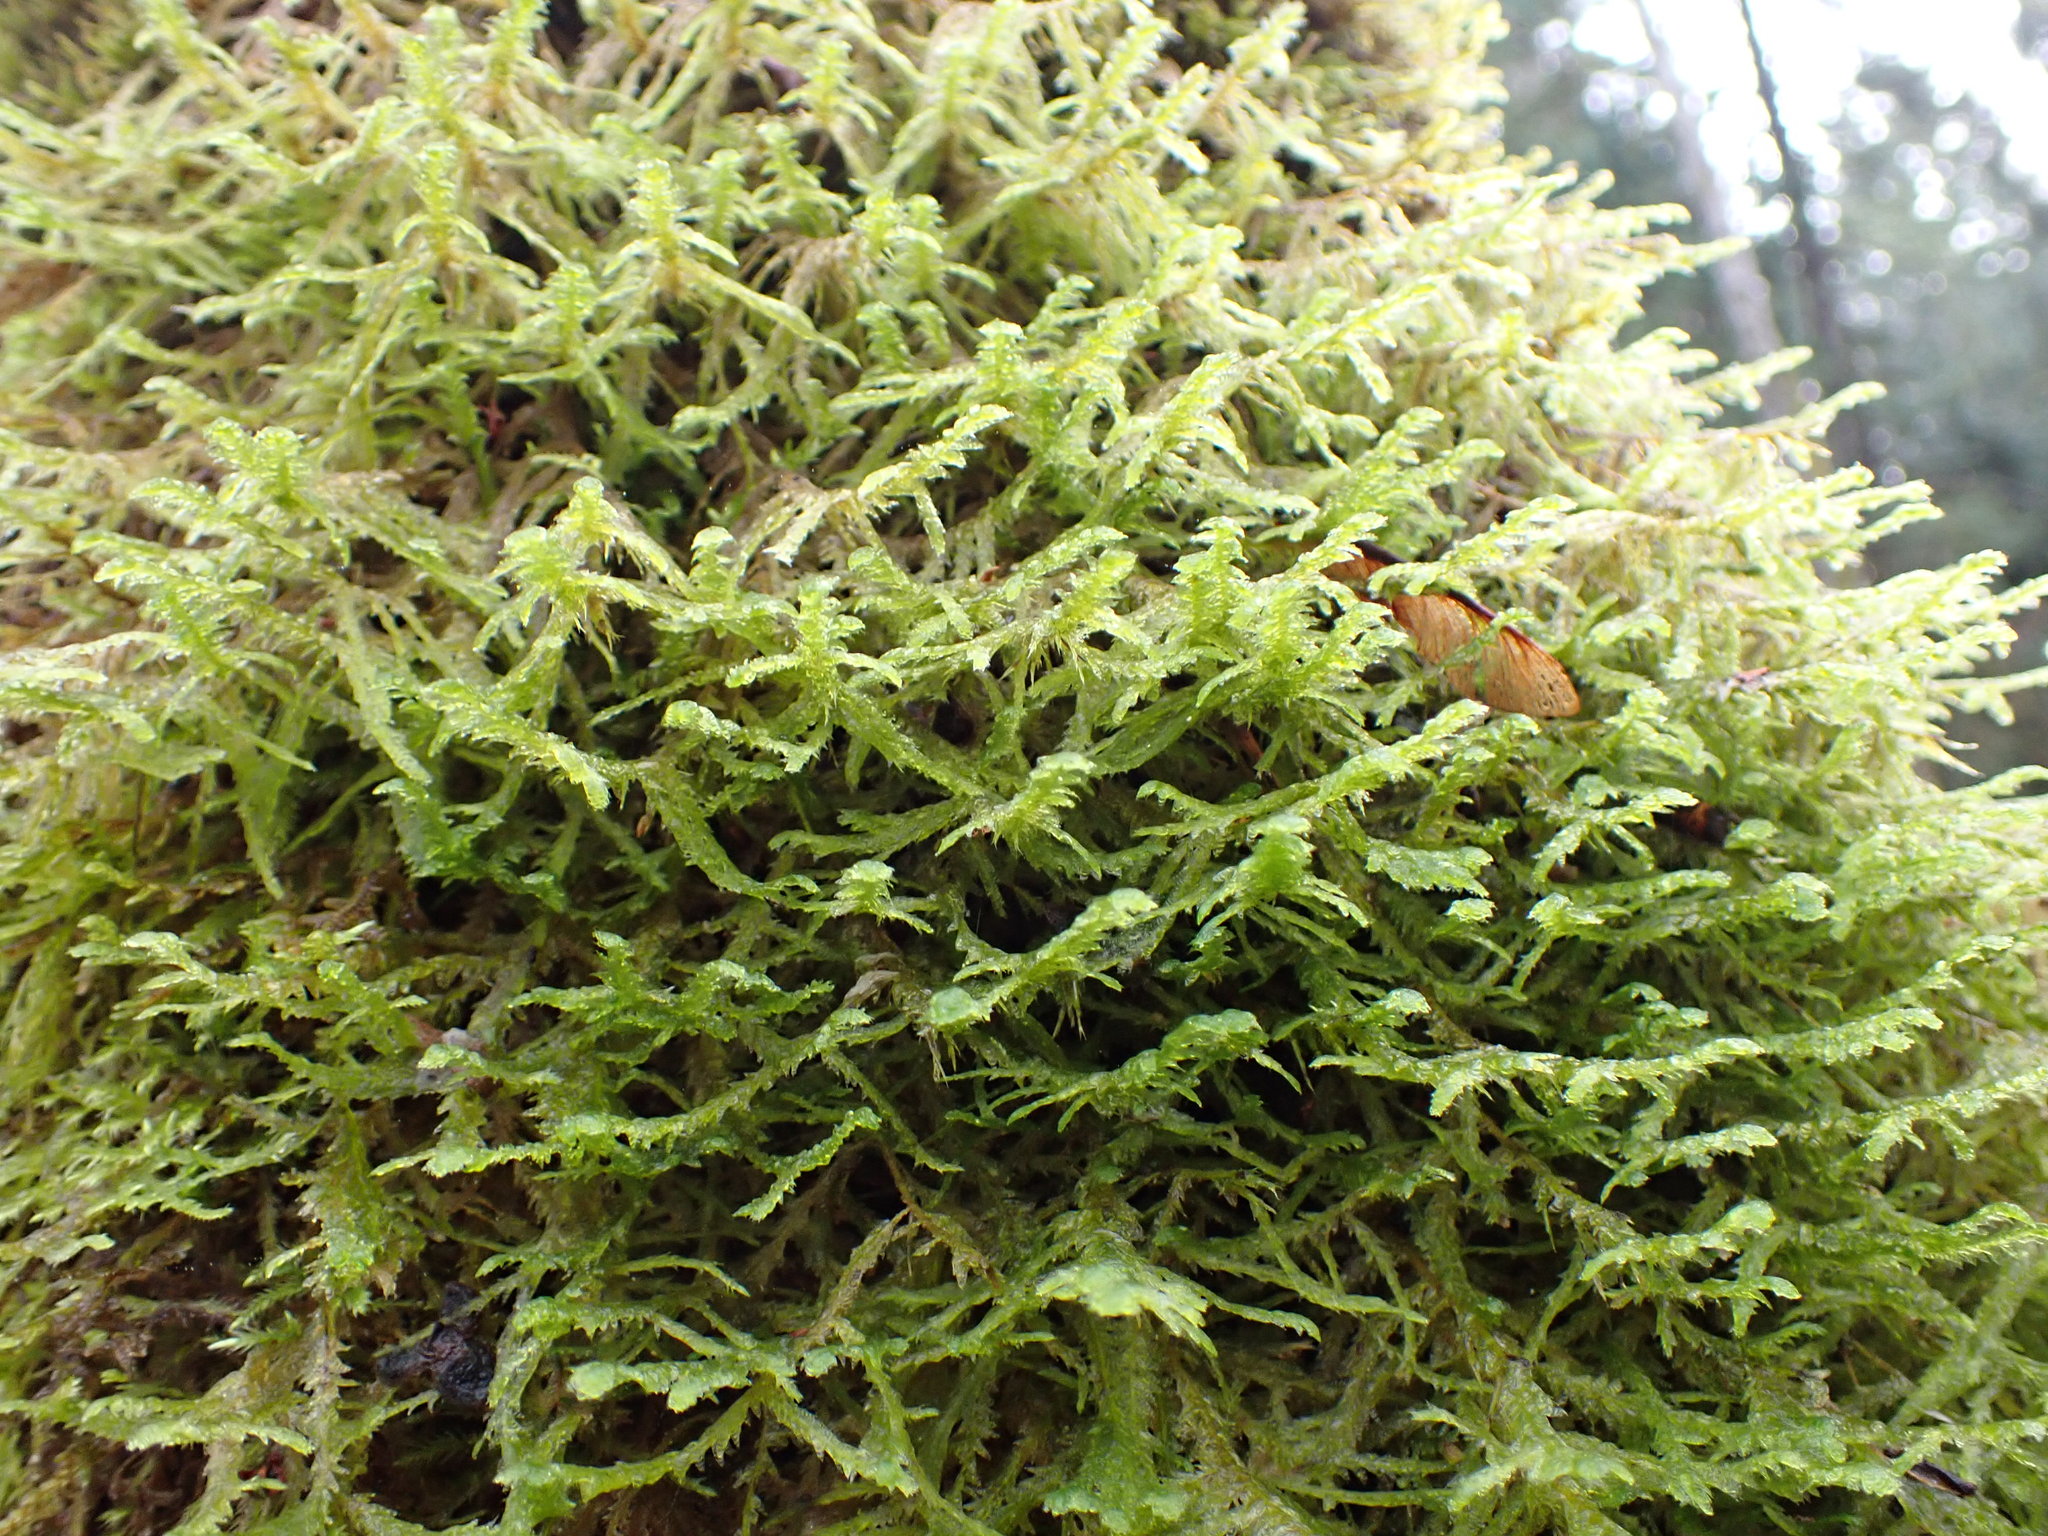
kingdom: Plantae
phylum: Bryophyta
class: Bryopsida
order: Hypnales
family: Neckeraceae
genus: Neckera
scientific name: Neckera douglasii
